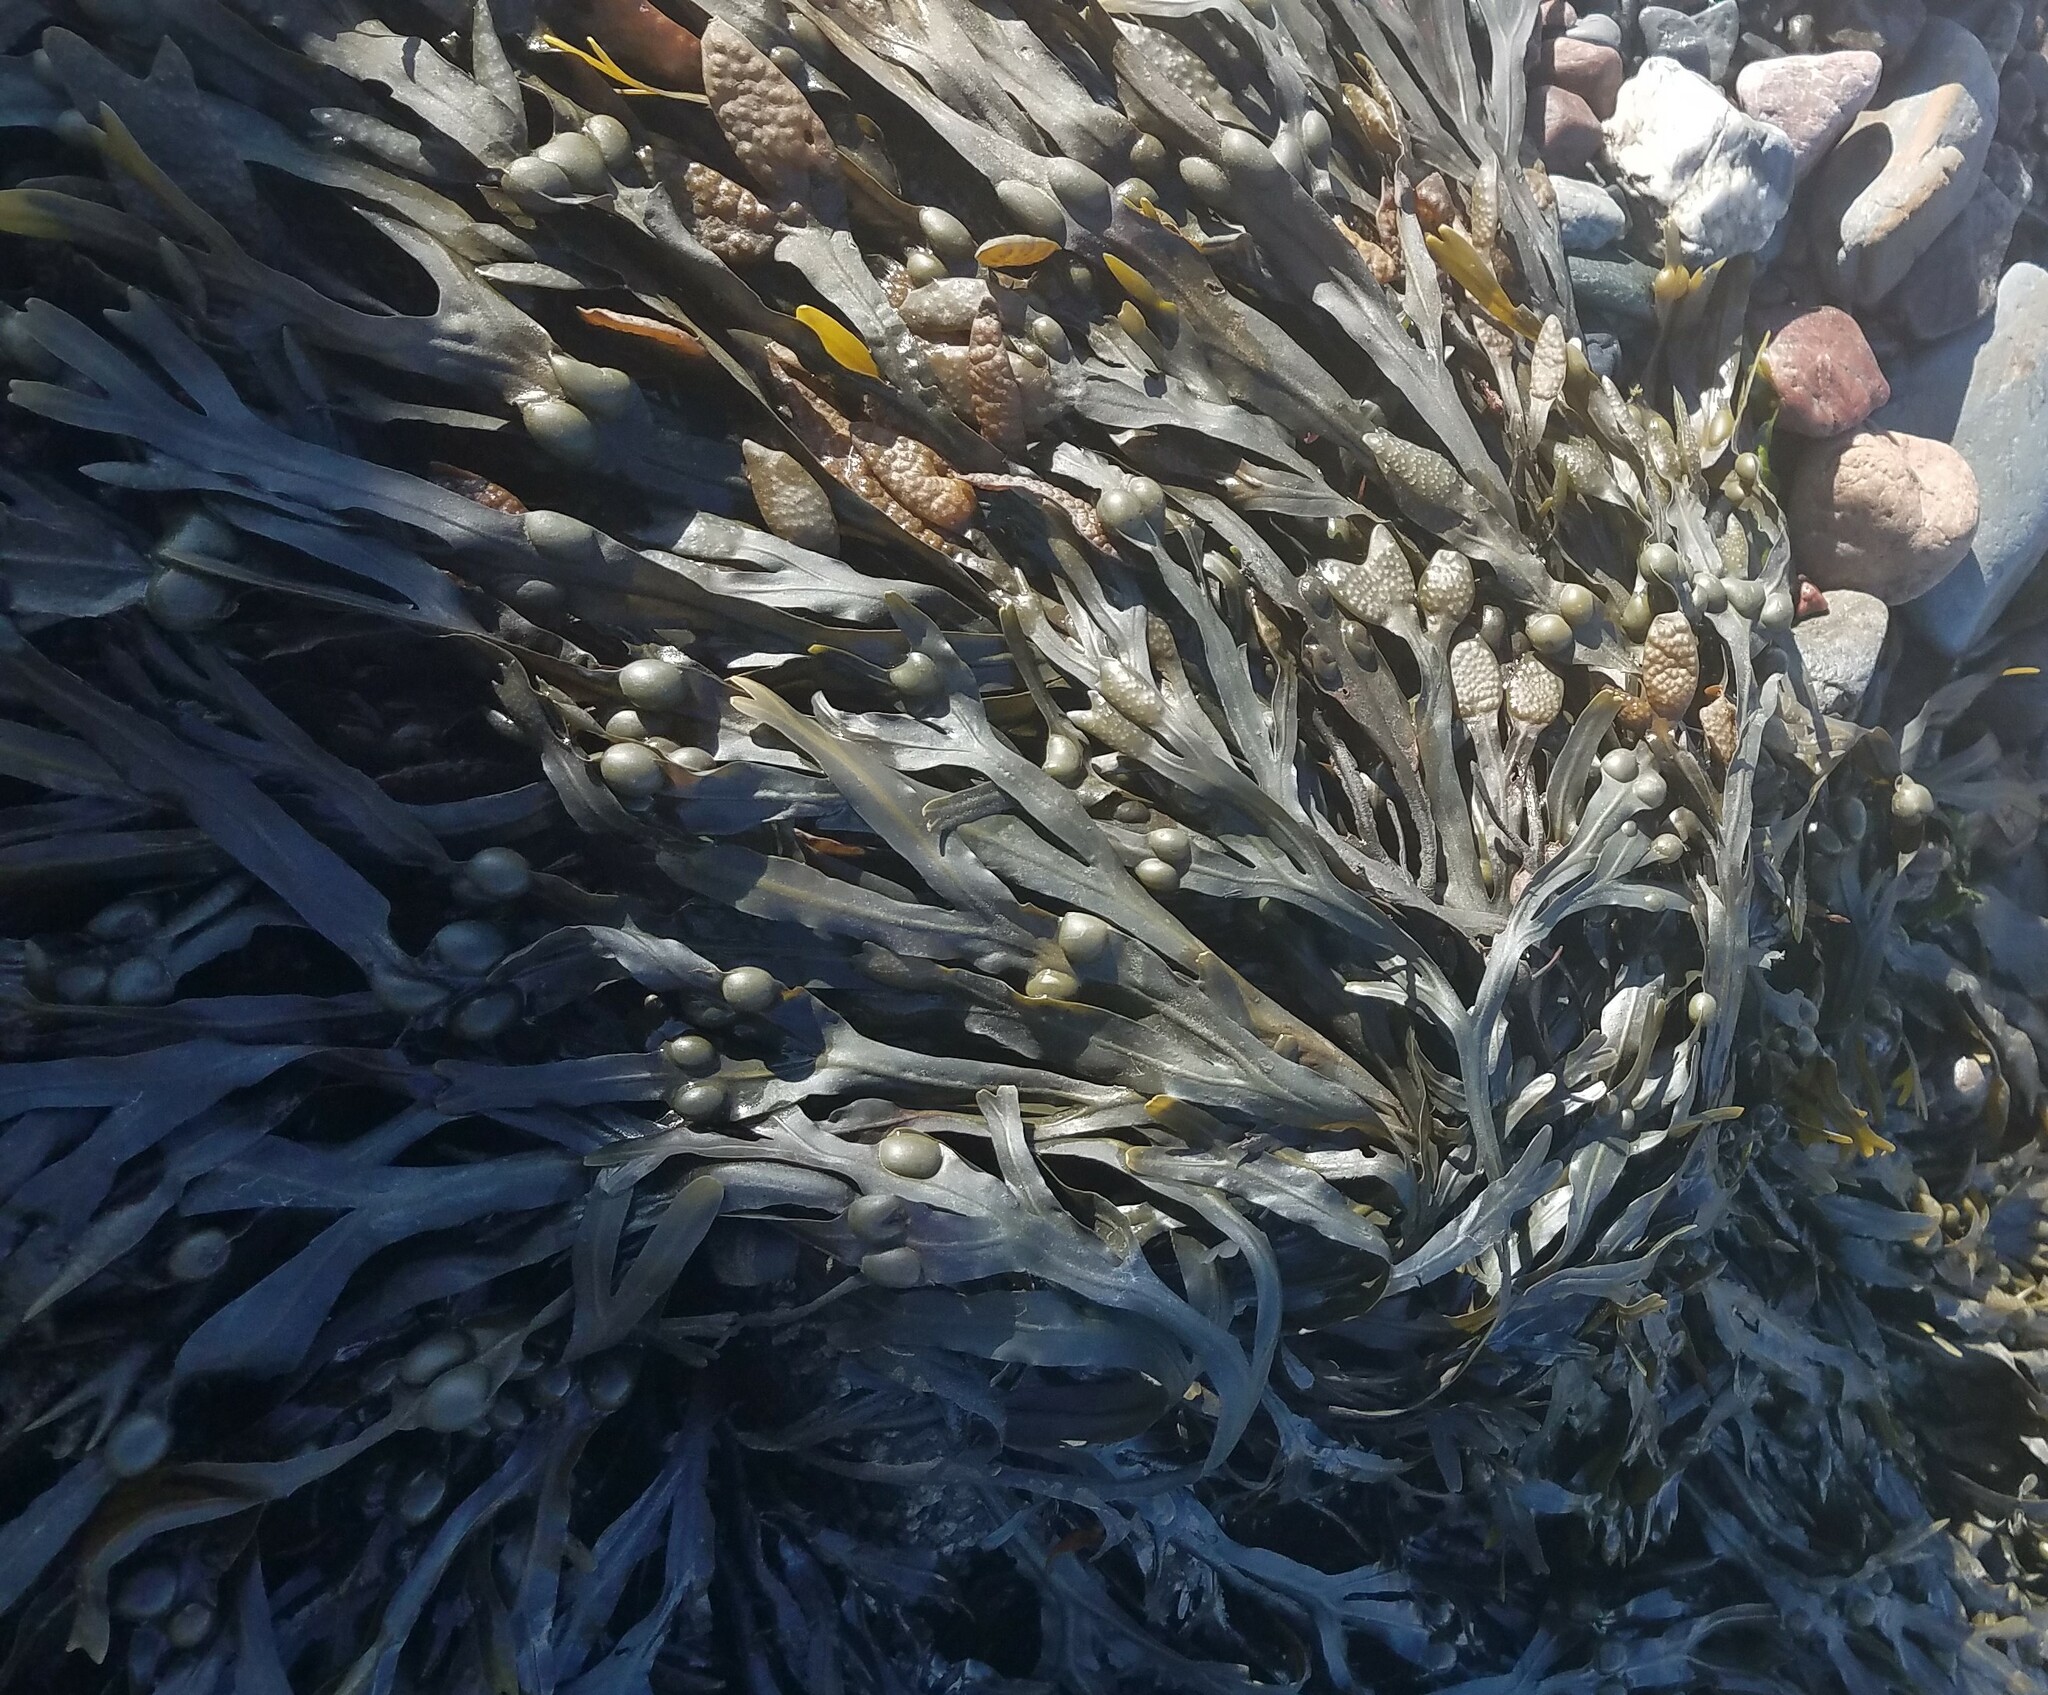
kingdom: Chromista
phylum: Ochrophyta
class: Phaeophyceae
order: Fucales
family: Fucaceae
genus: Fucus
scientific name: Fucus vesiculosus
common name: Bladder wrack
